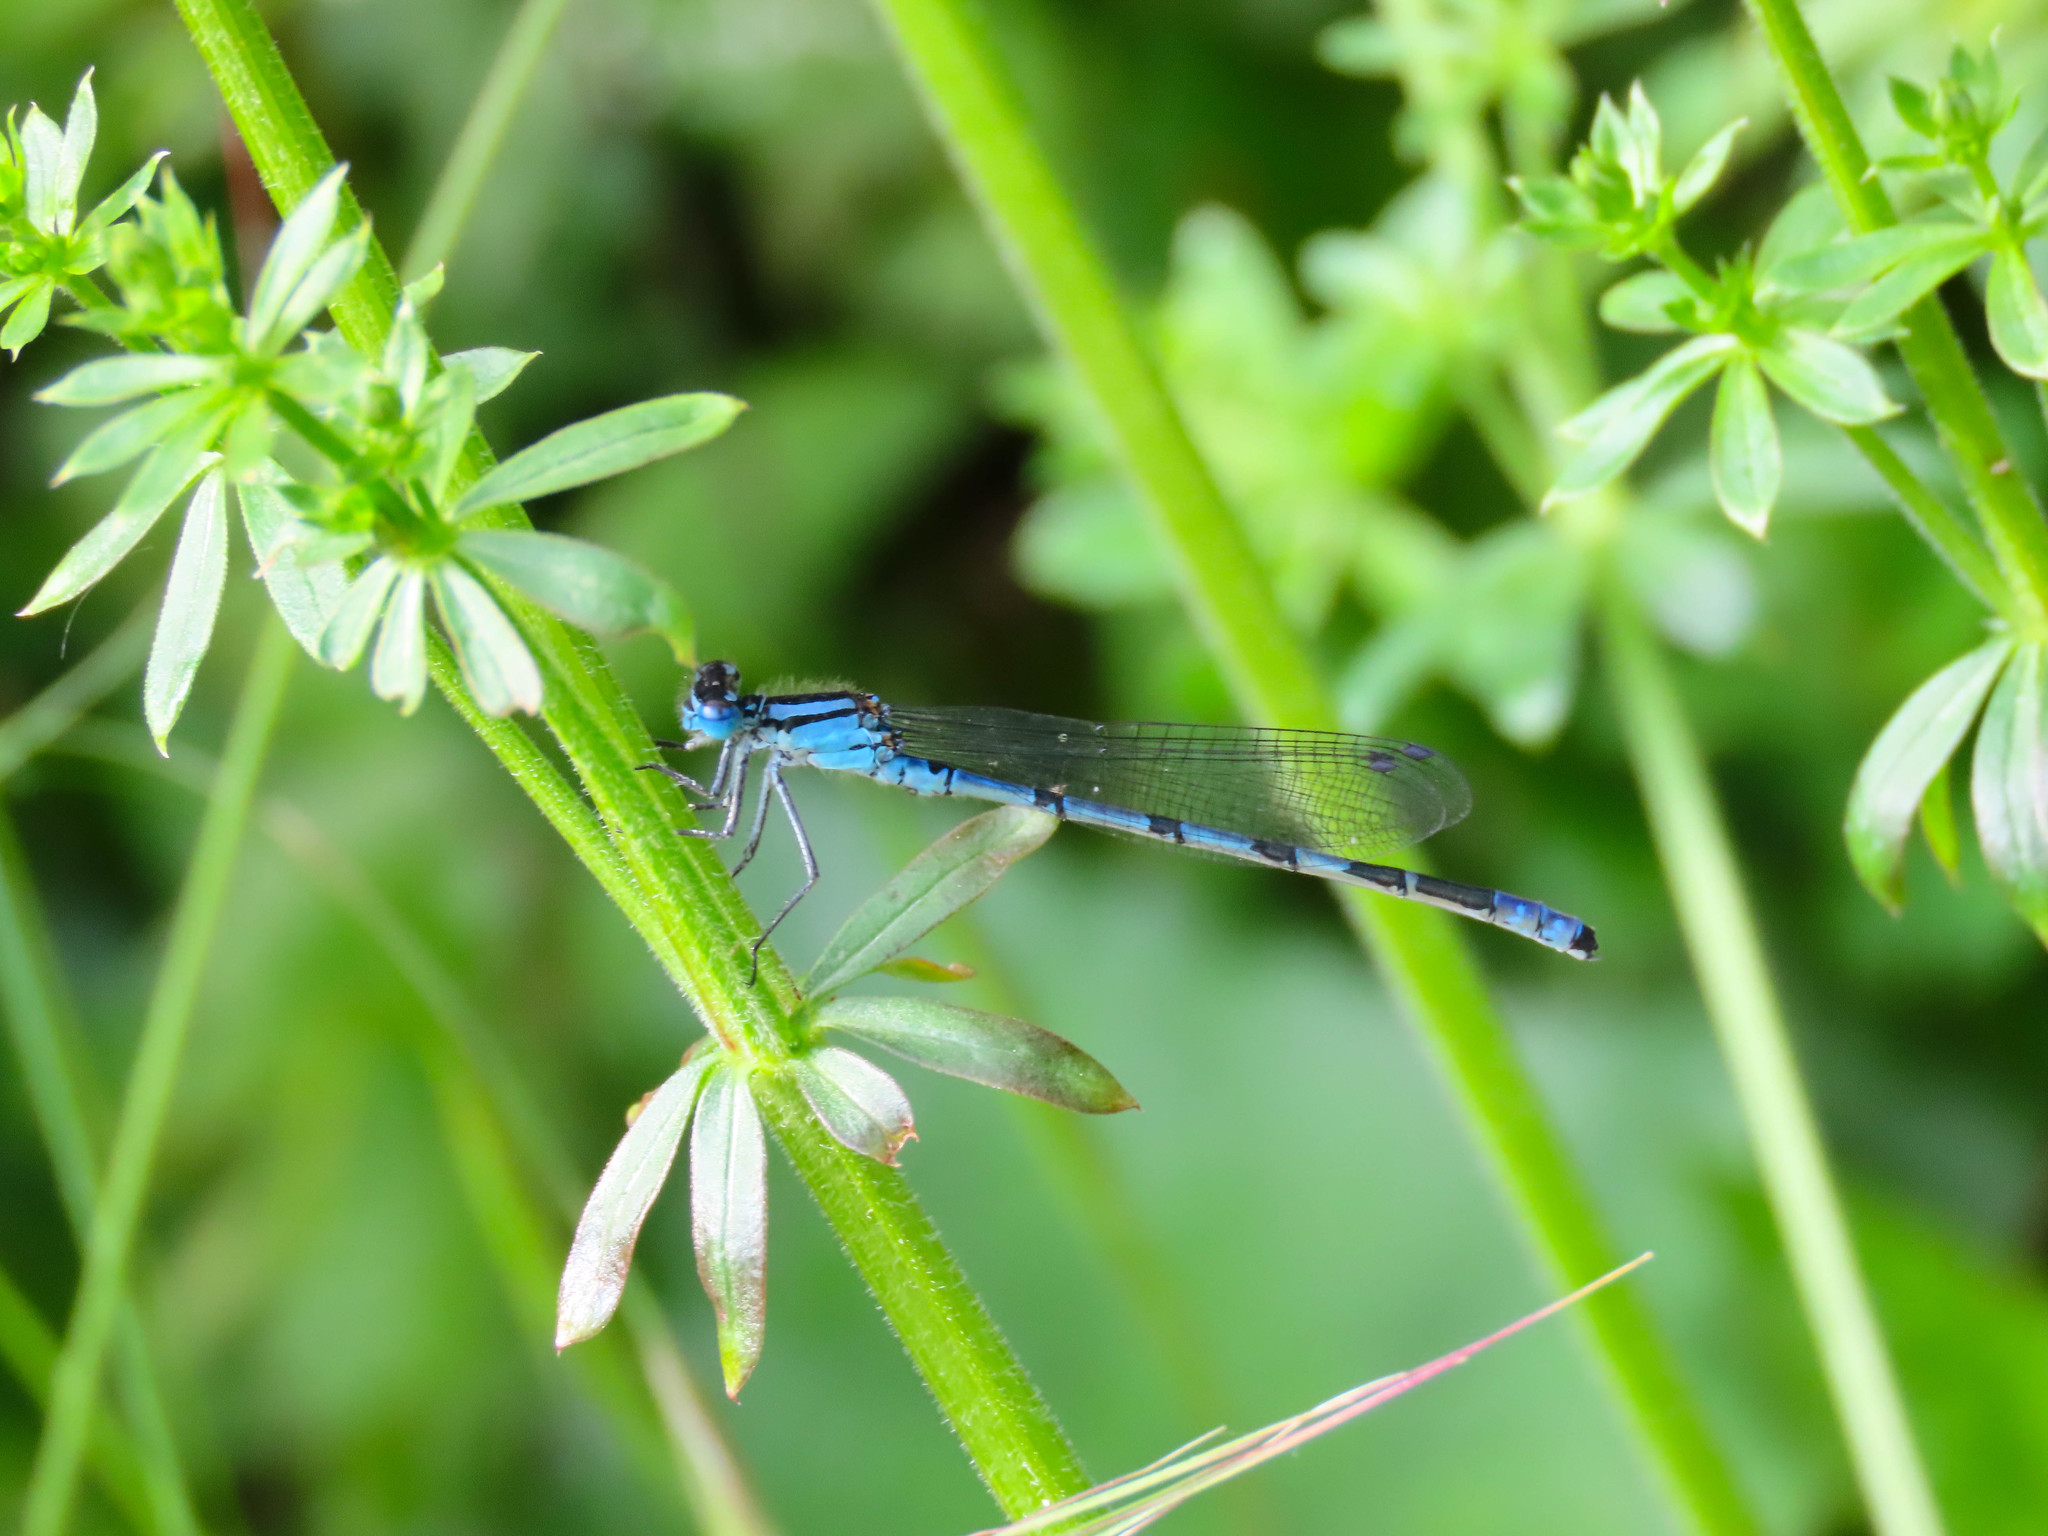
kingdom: Animalia
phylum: Arthropoda
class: Insecta
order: Odonata
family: Coenagrionidae
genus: Enallagma
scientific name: Enallagma cyathigerum
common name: Common blue damselfly
